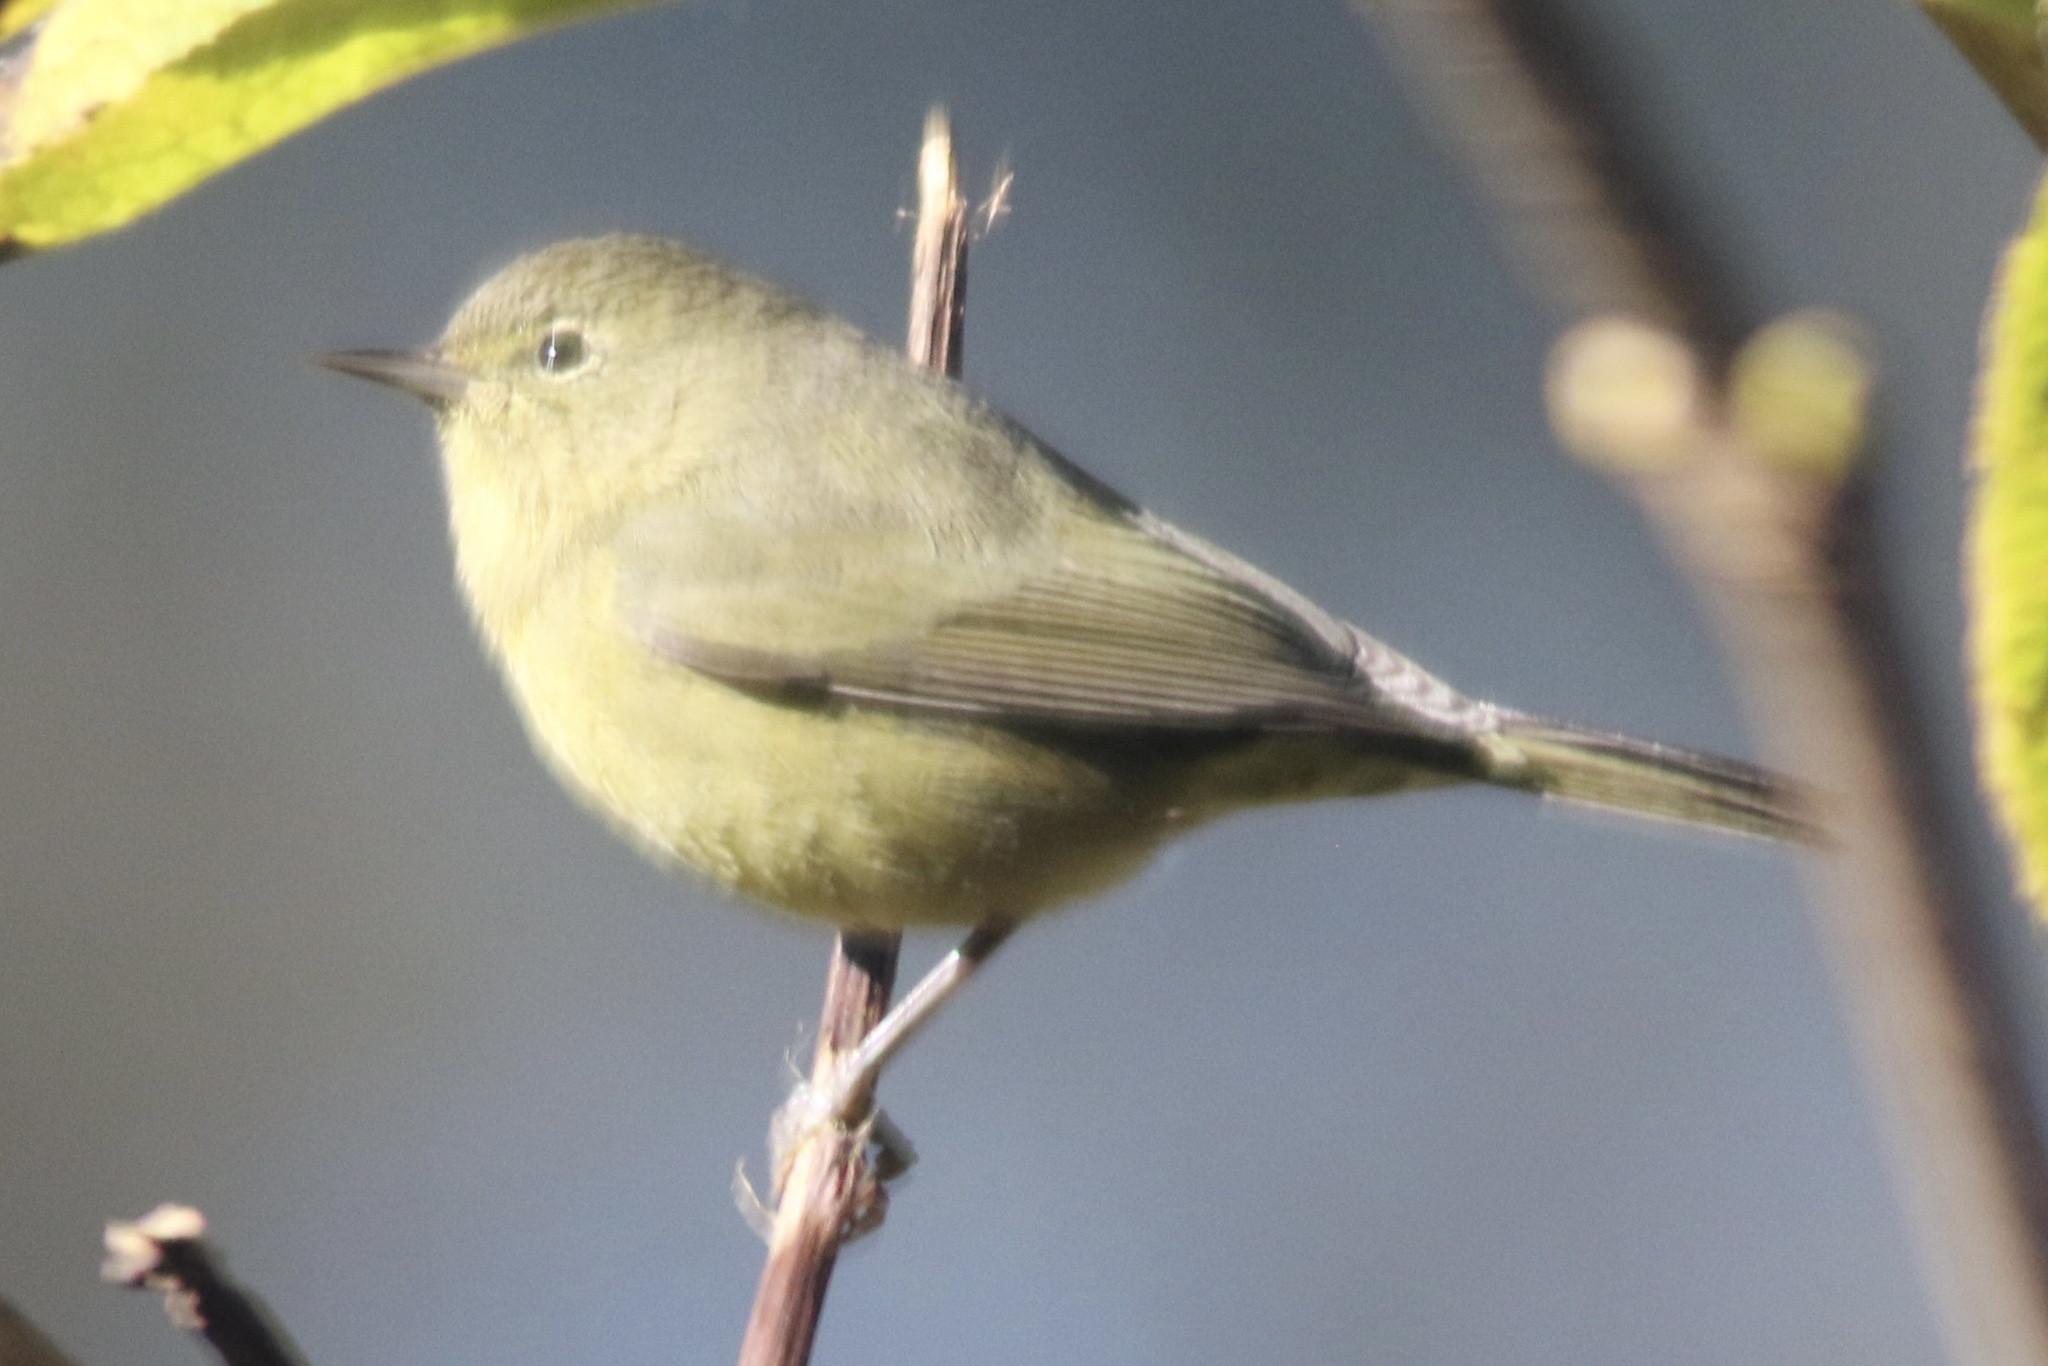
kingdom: Animalia
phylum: Chordata
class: Aves
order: Passeriformes
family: Parulidae
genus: Leiothlypis
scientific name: Leiothlypis celata
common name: Orange-crowned warbler
